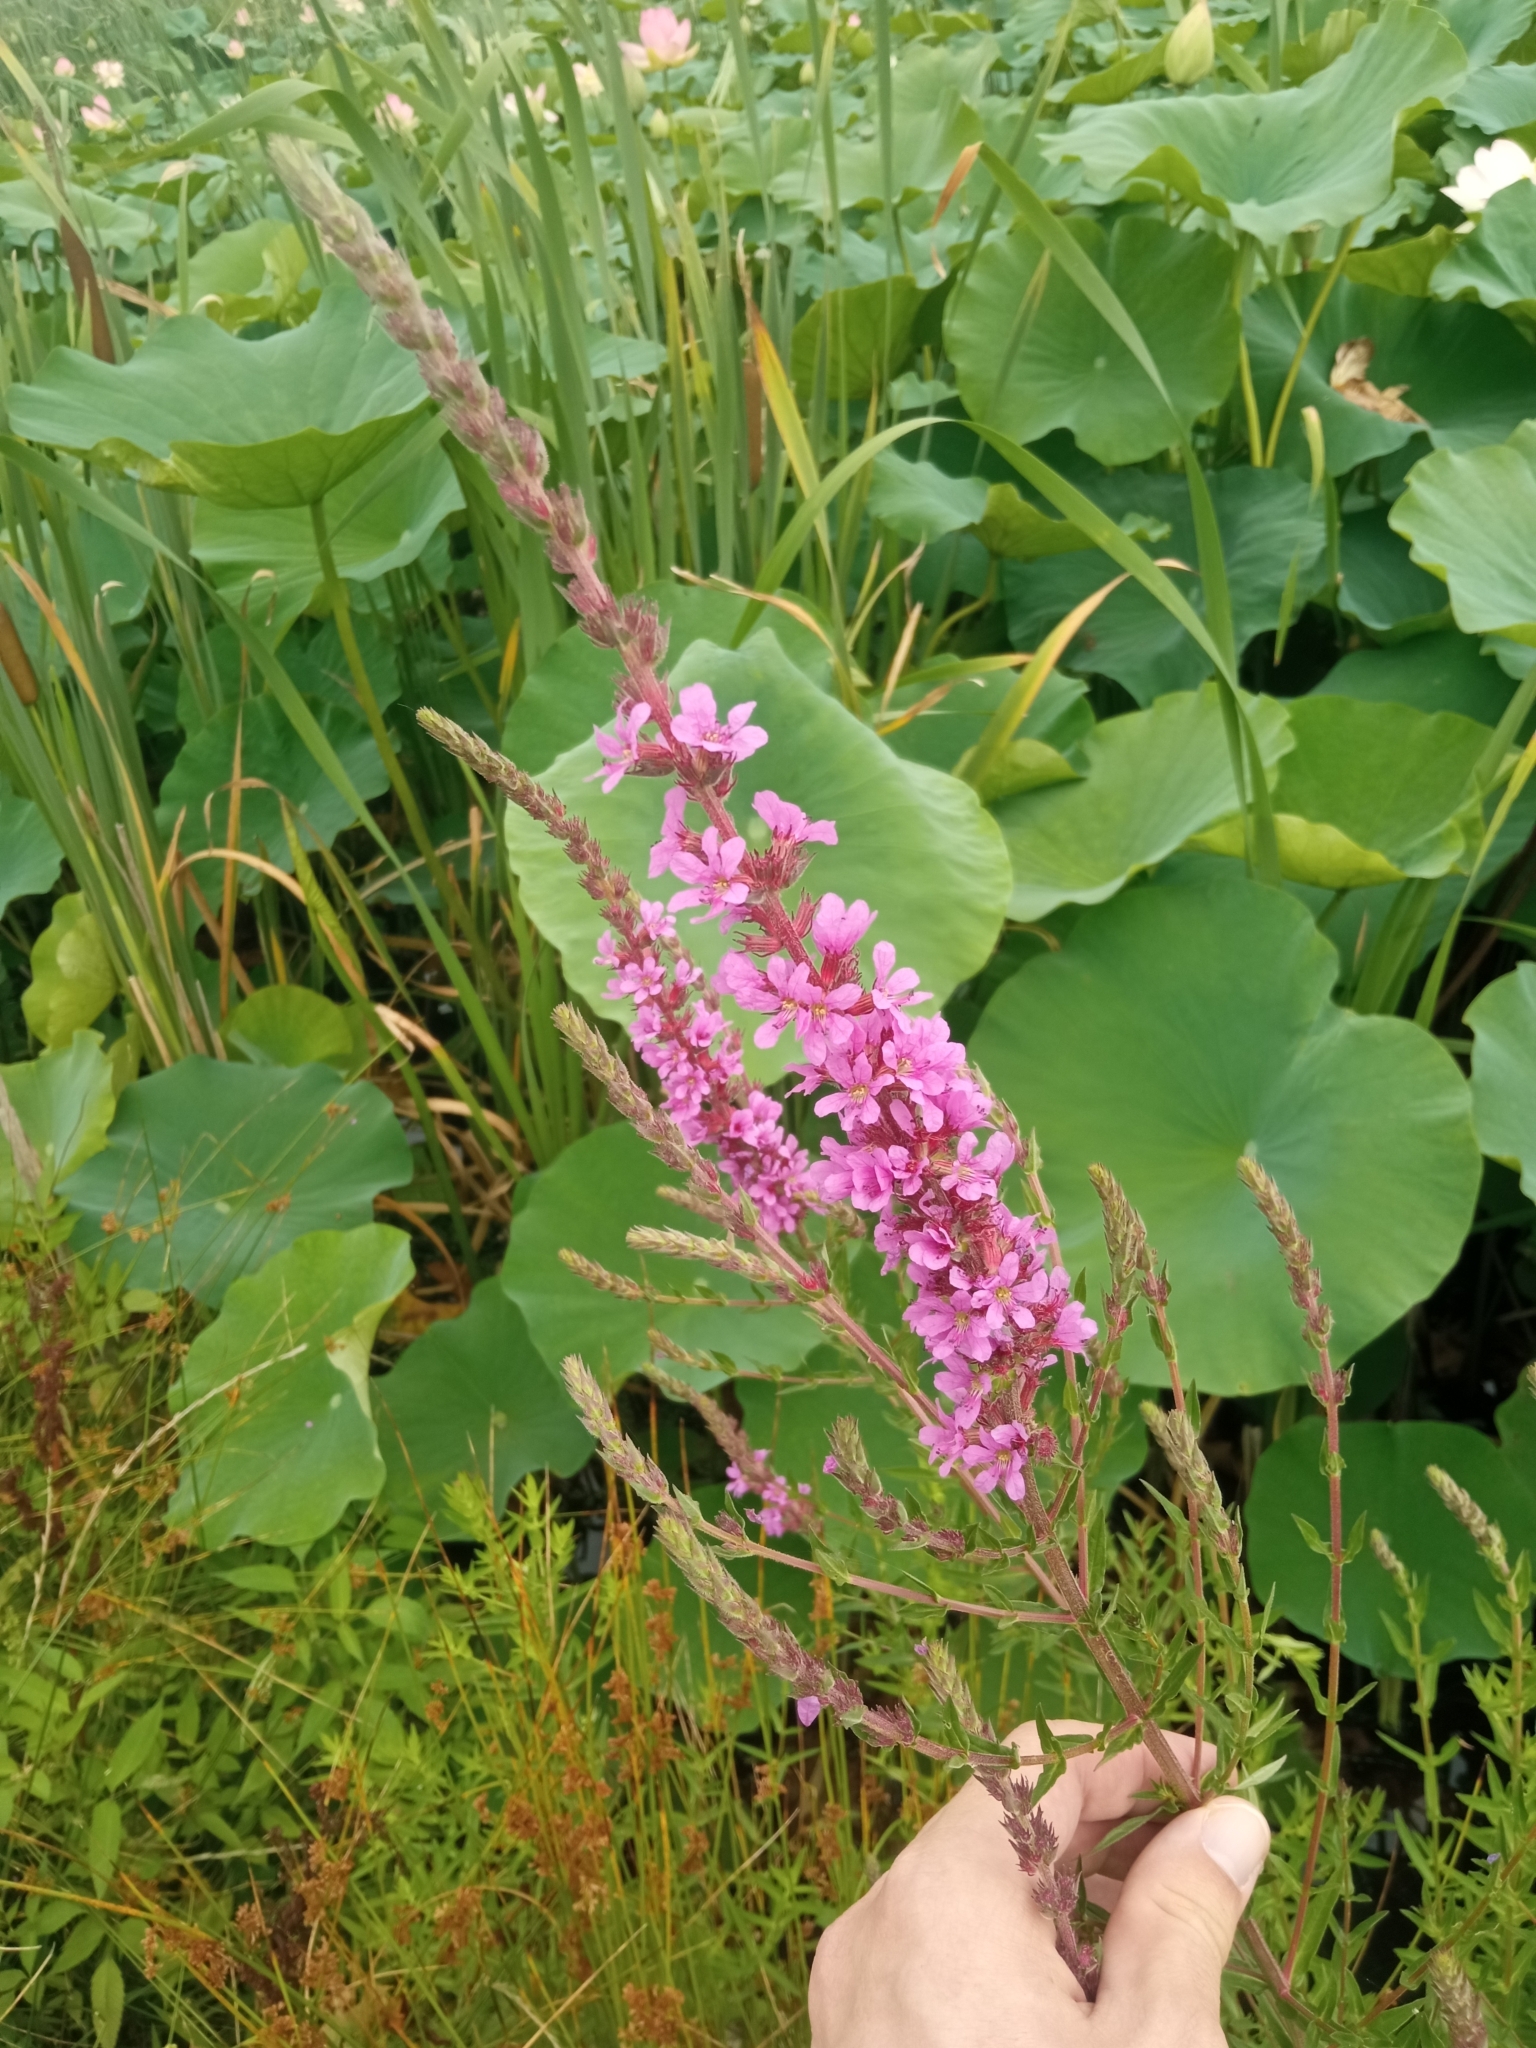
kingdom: Plantae
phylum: Tracheophyta
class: Magnoliopsida
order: Myrtales
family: Lythraceae
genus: Lythrum
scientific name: Lythrum salicaria
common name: Purple loosestrife
